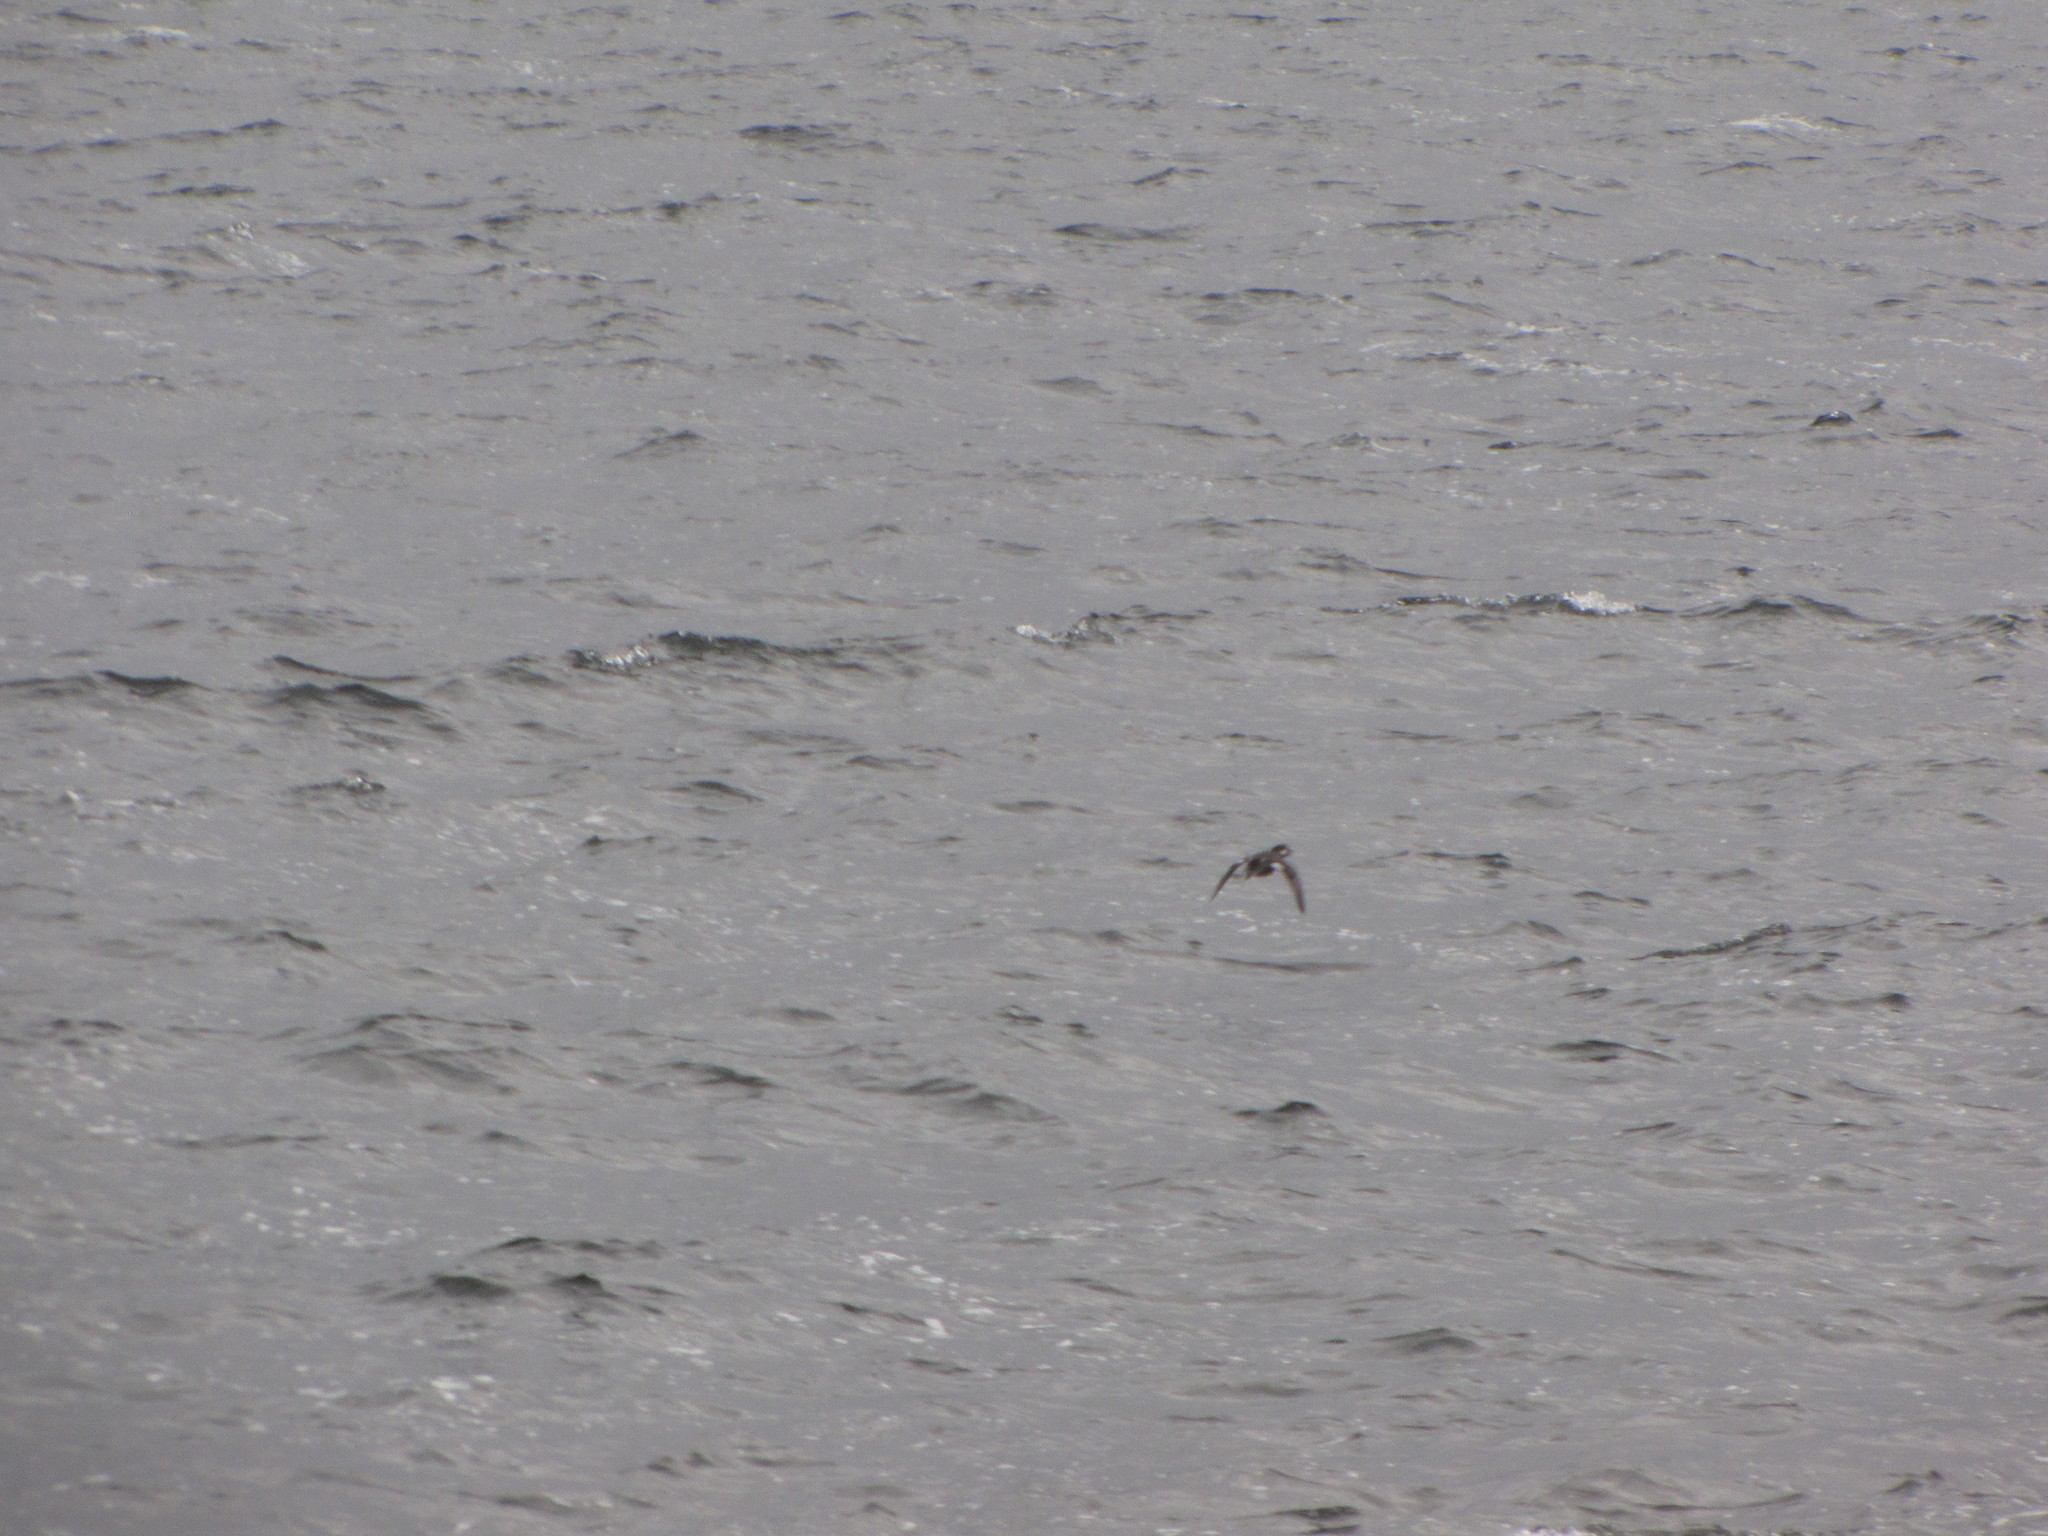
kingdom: Animalia
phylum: Chordata
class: Aves
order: Anseriformes
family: Anatidae
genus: Bucephala
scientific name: Bucephala albeola
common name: Bufflehead
